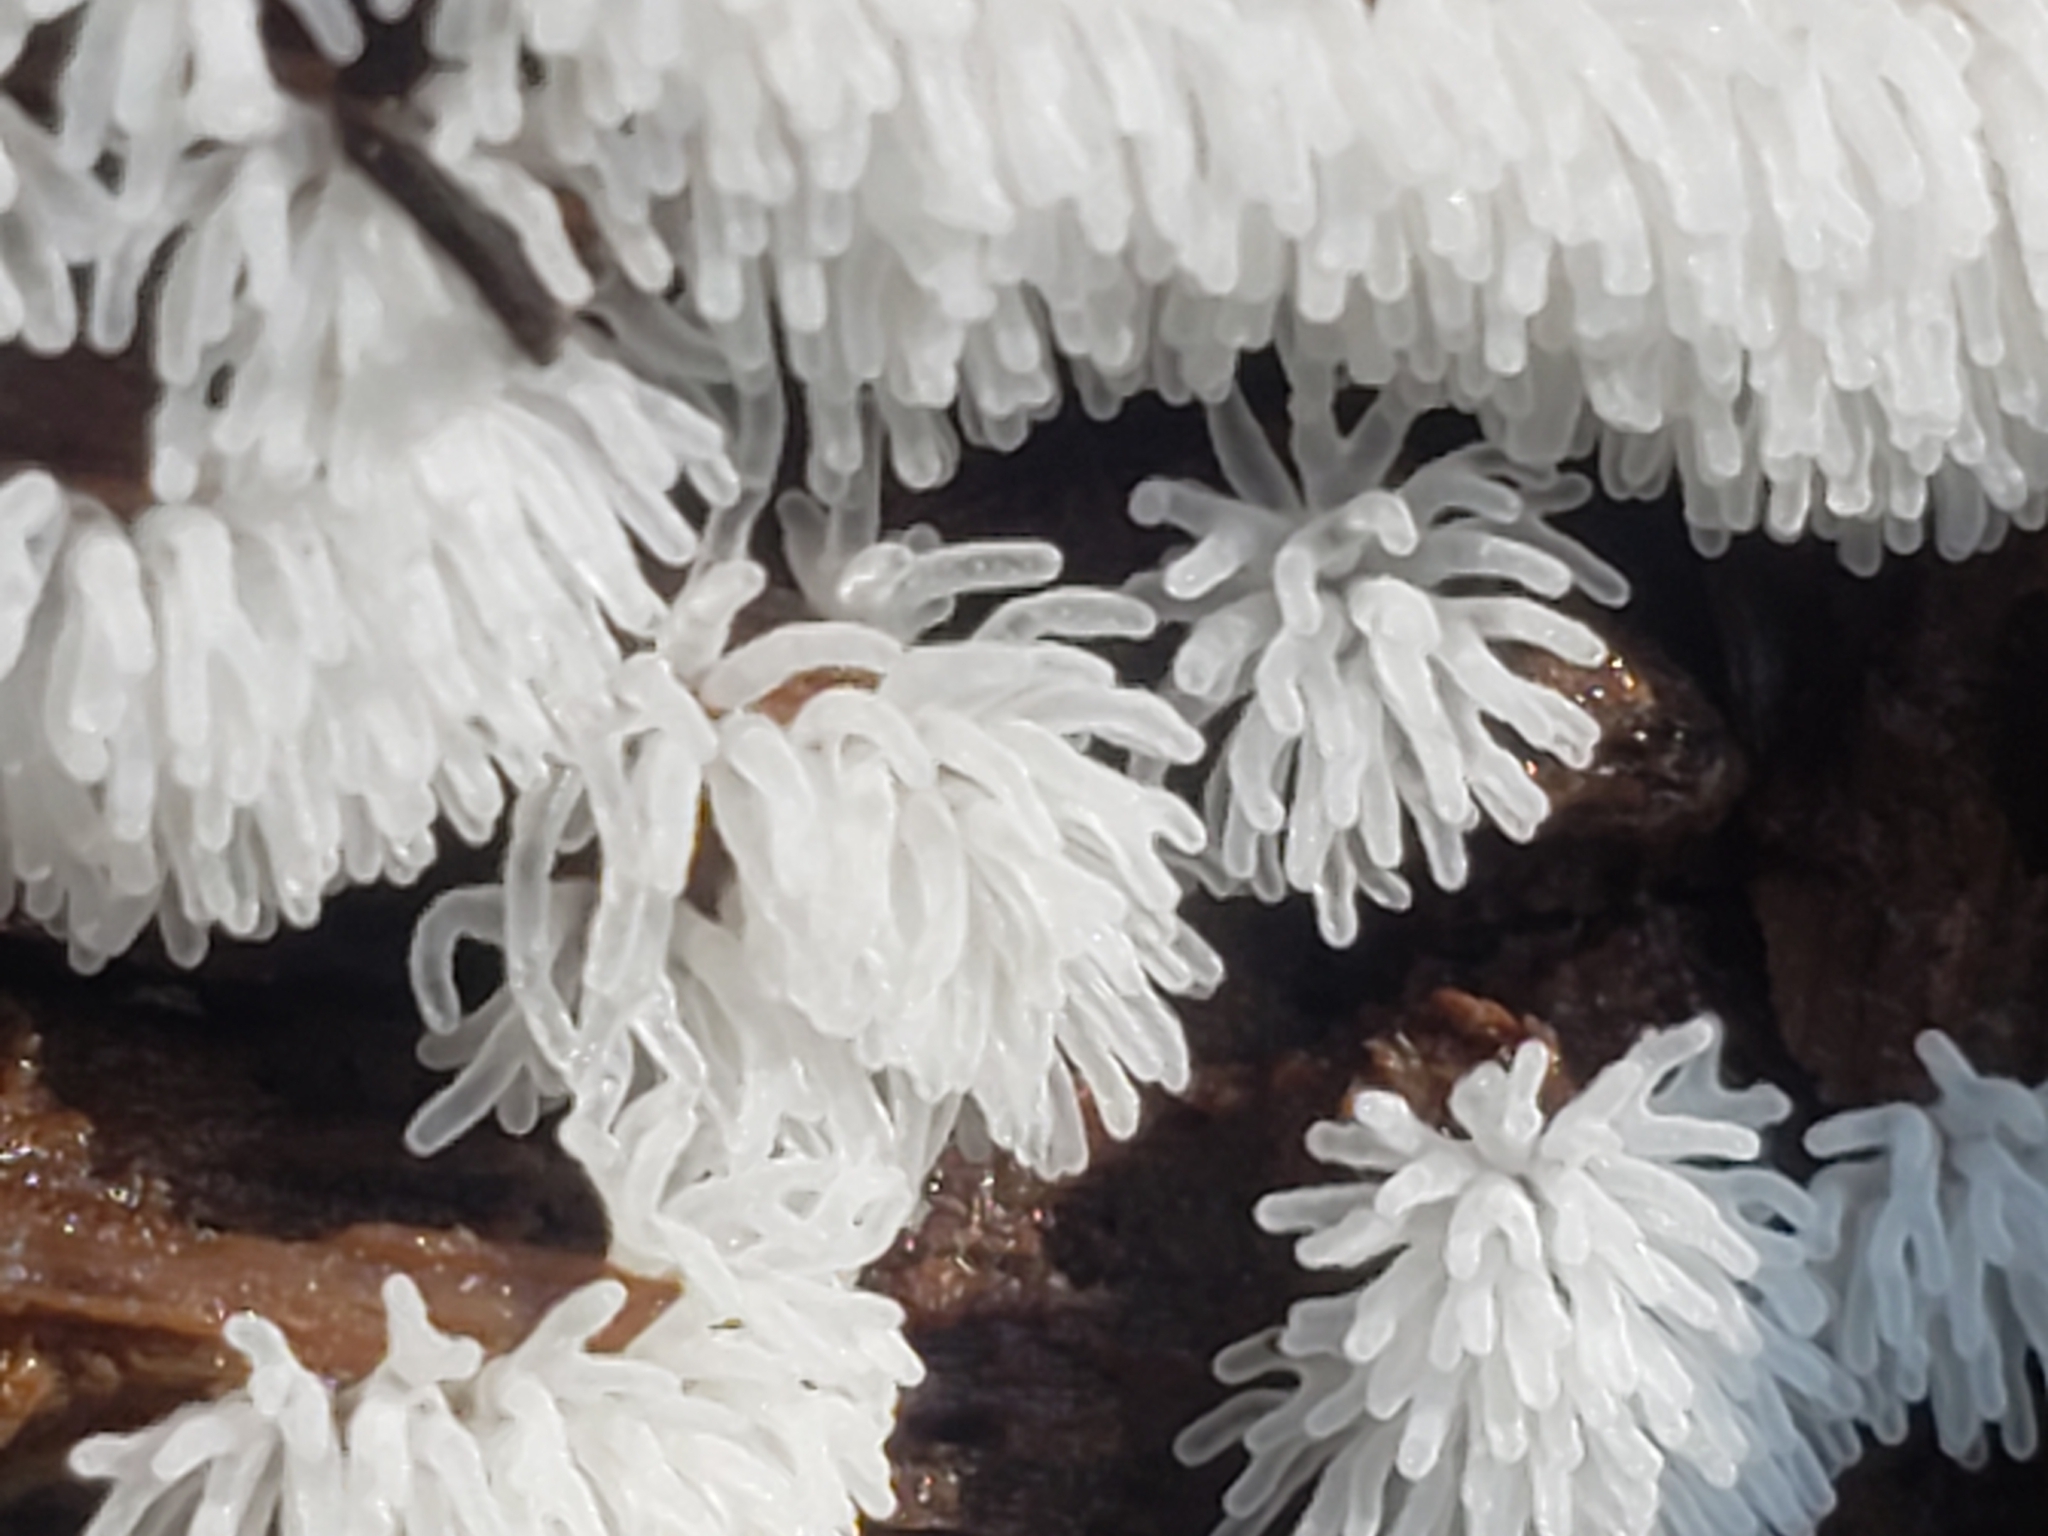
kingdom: Protozoa
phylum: Mycetozoa
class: Protosteliomycetes
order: Ceratiomyxales
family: Ceratiomyxaceae
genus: Ceratiomyxa
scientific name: Ceratiomyxa fruticulosa
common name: Honeycomb coral slime mold
